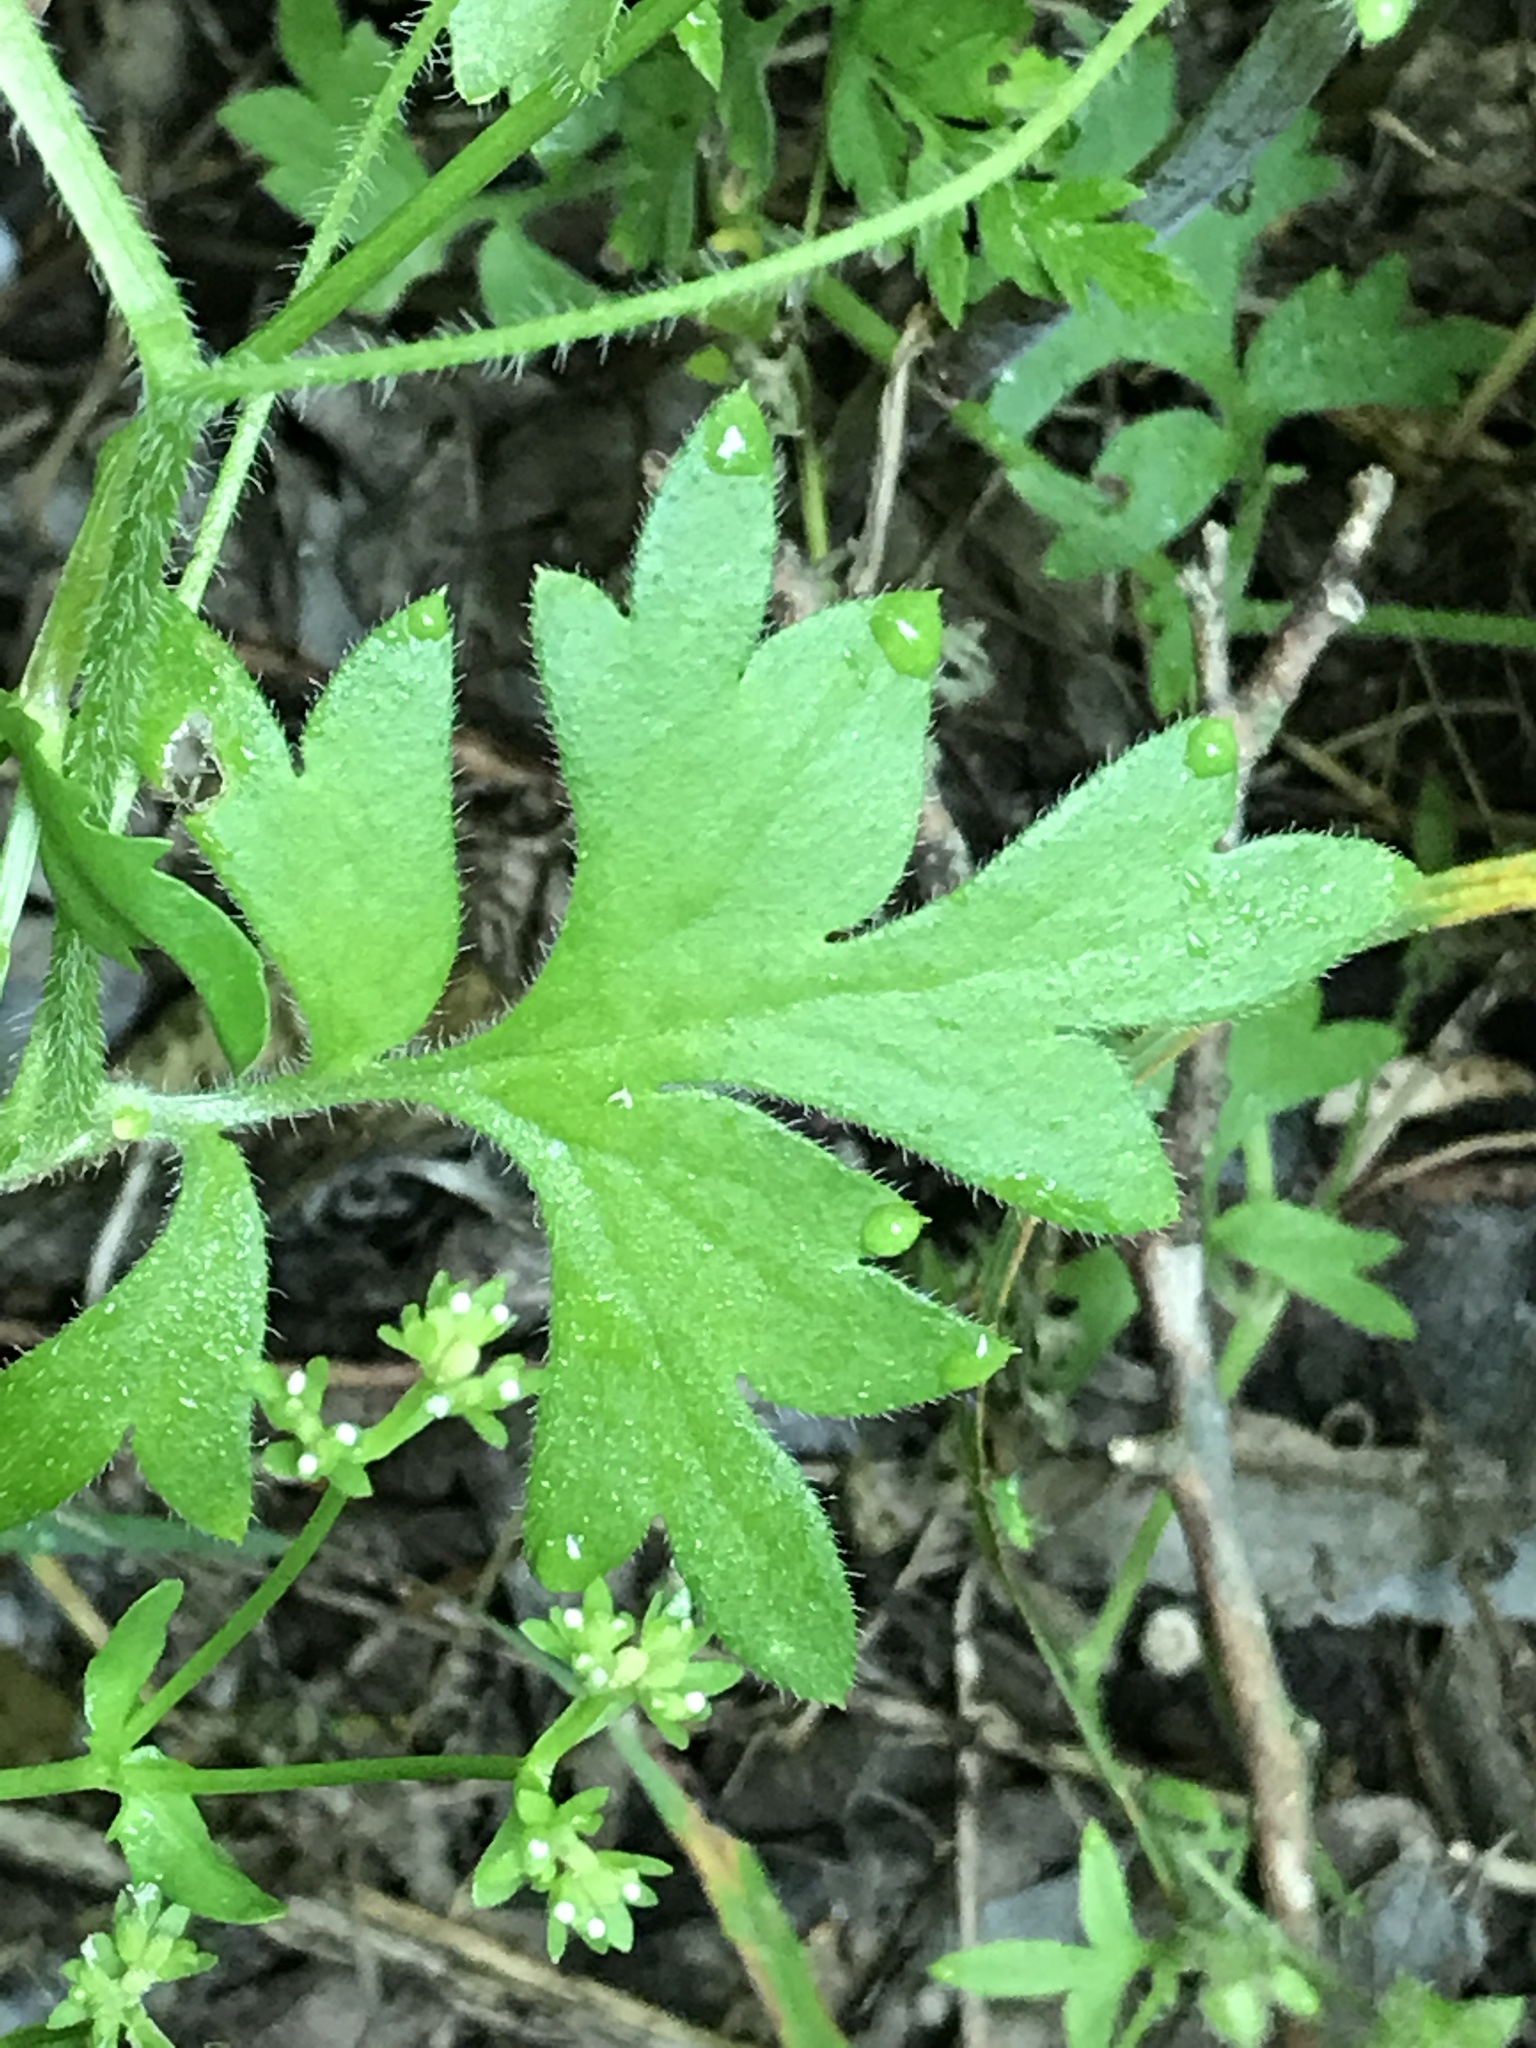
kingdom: Plantae
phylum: Tracheophyta
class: Magnoliopsida
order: Boraginales
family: Hydrophyllaceae
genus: Nemophila
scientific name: Nemophila phacelioides
